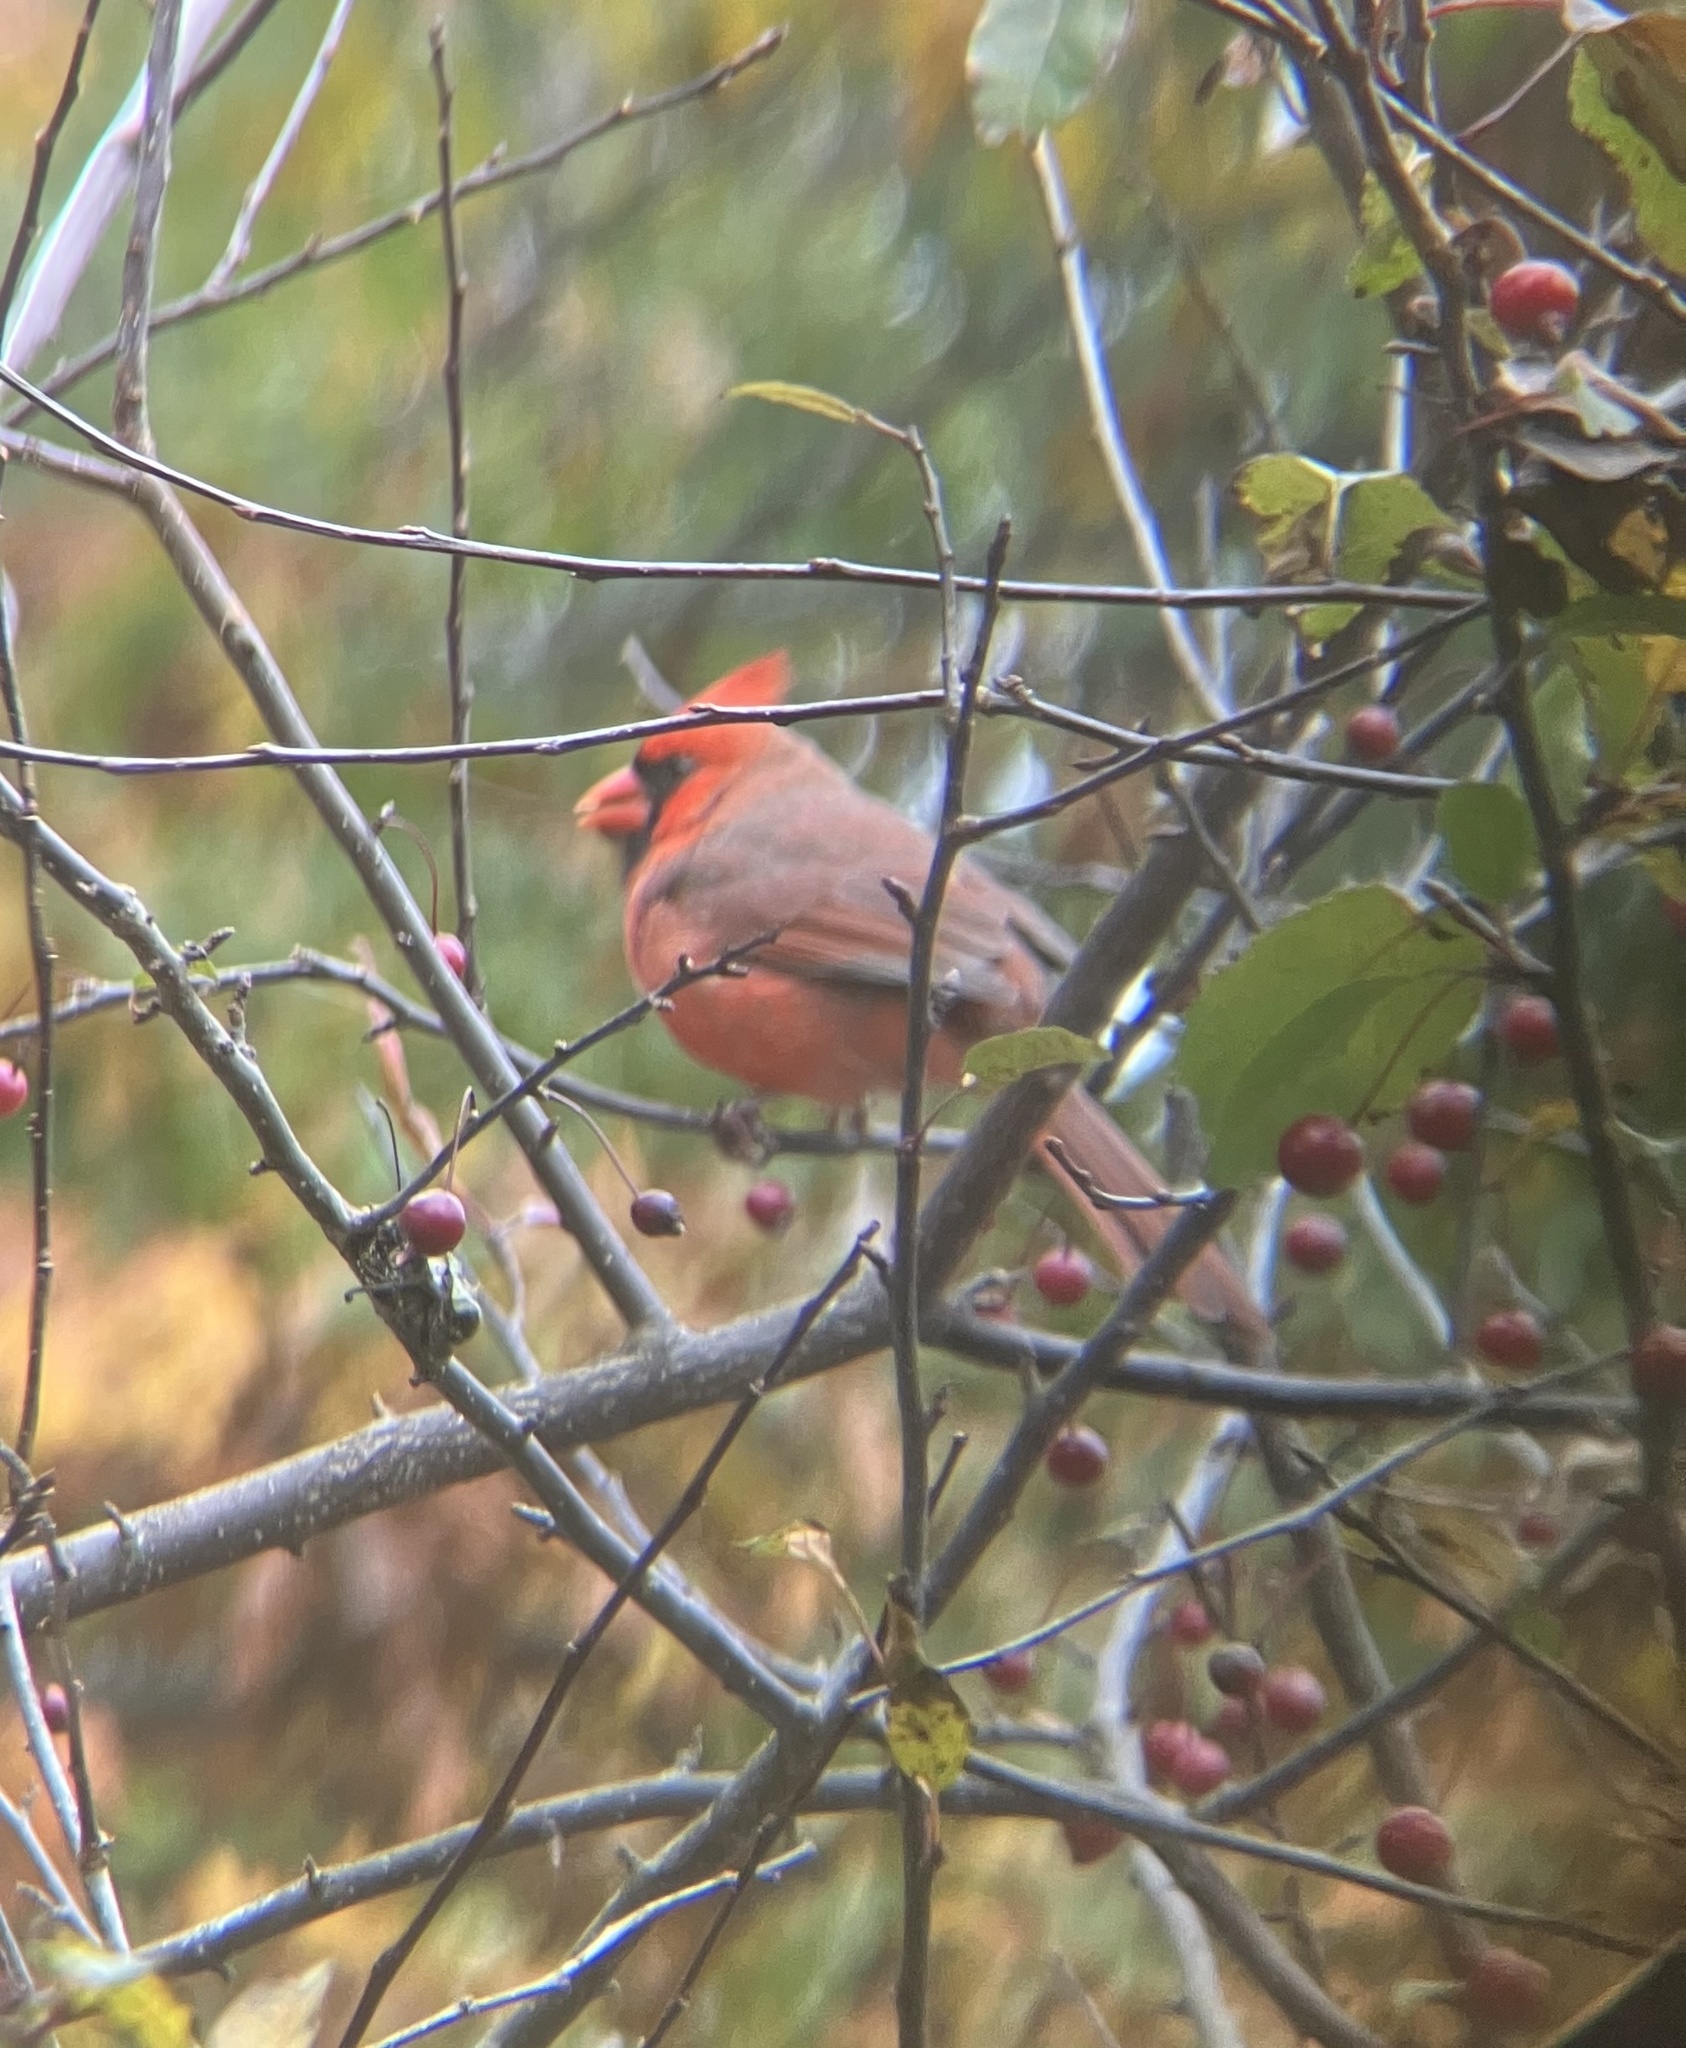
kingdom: Animalia
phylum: Chordata
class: Aves
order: Passeriformes
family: Cardinalidae
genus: Cardinalis
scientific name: Cardinalis cardinalis
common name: Northern cardinal
